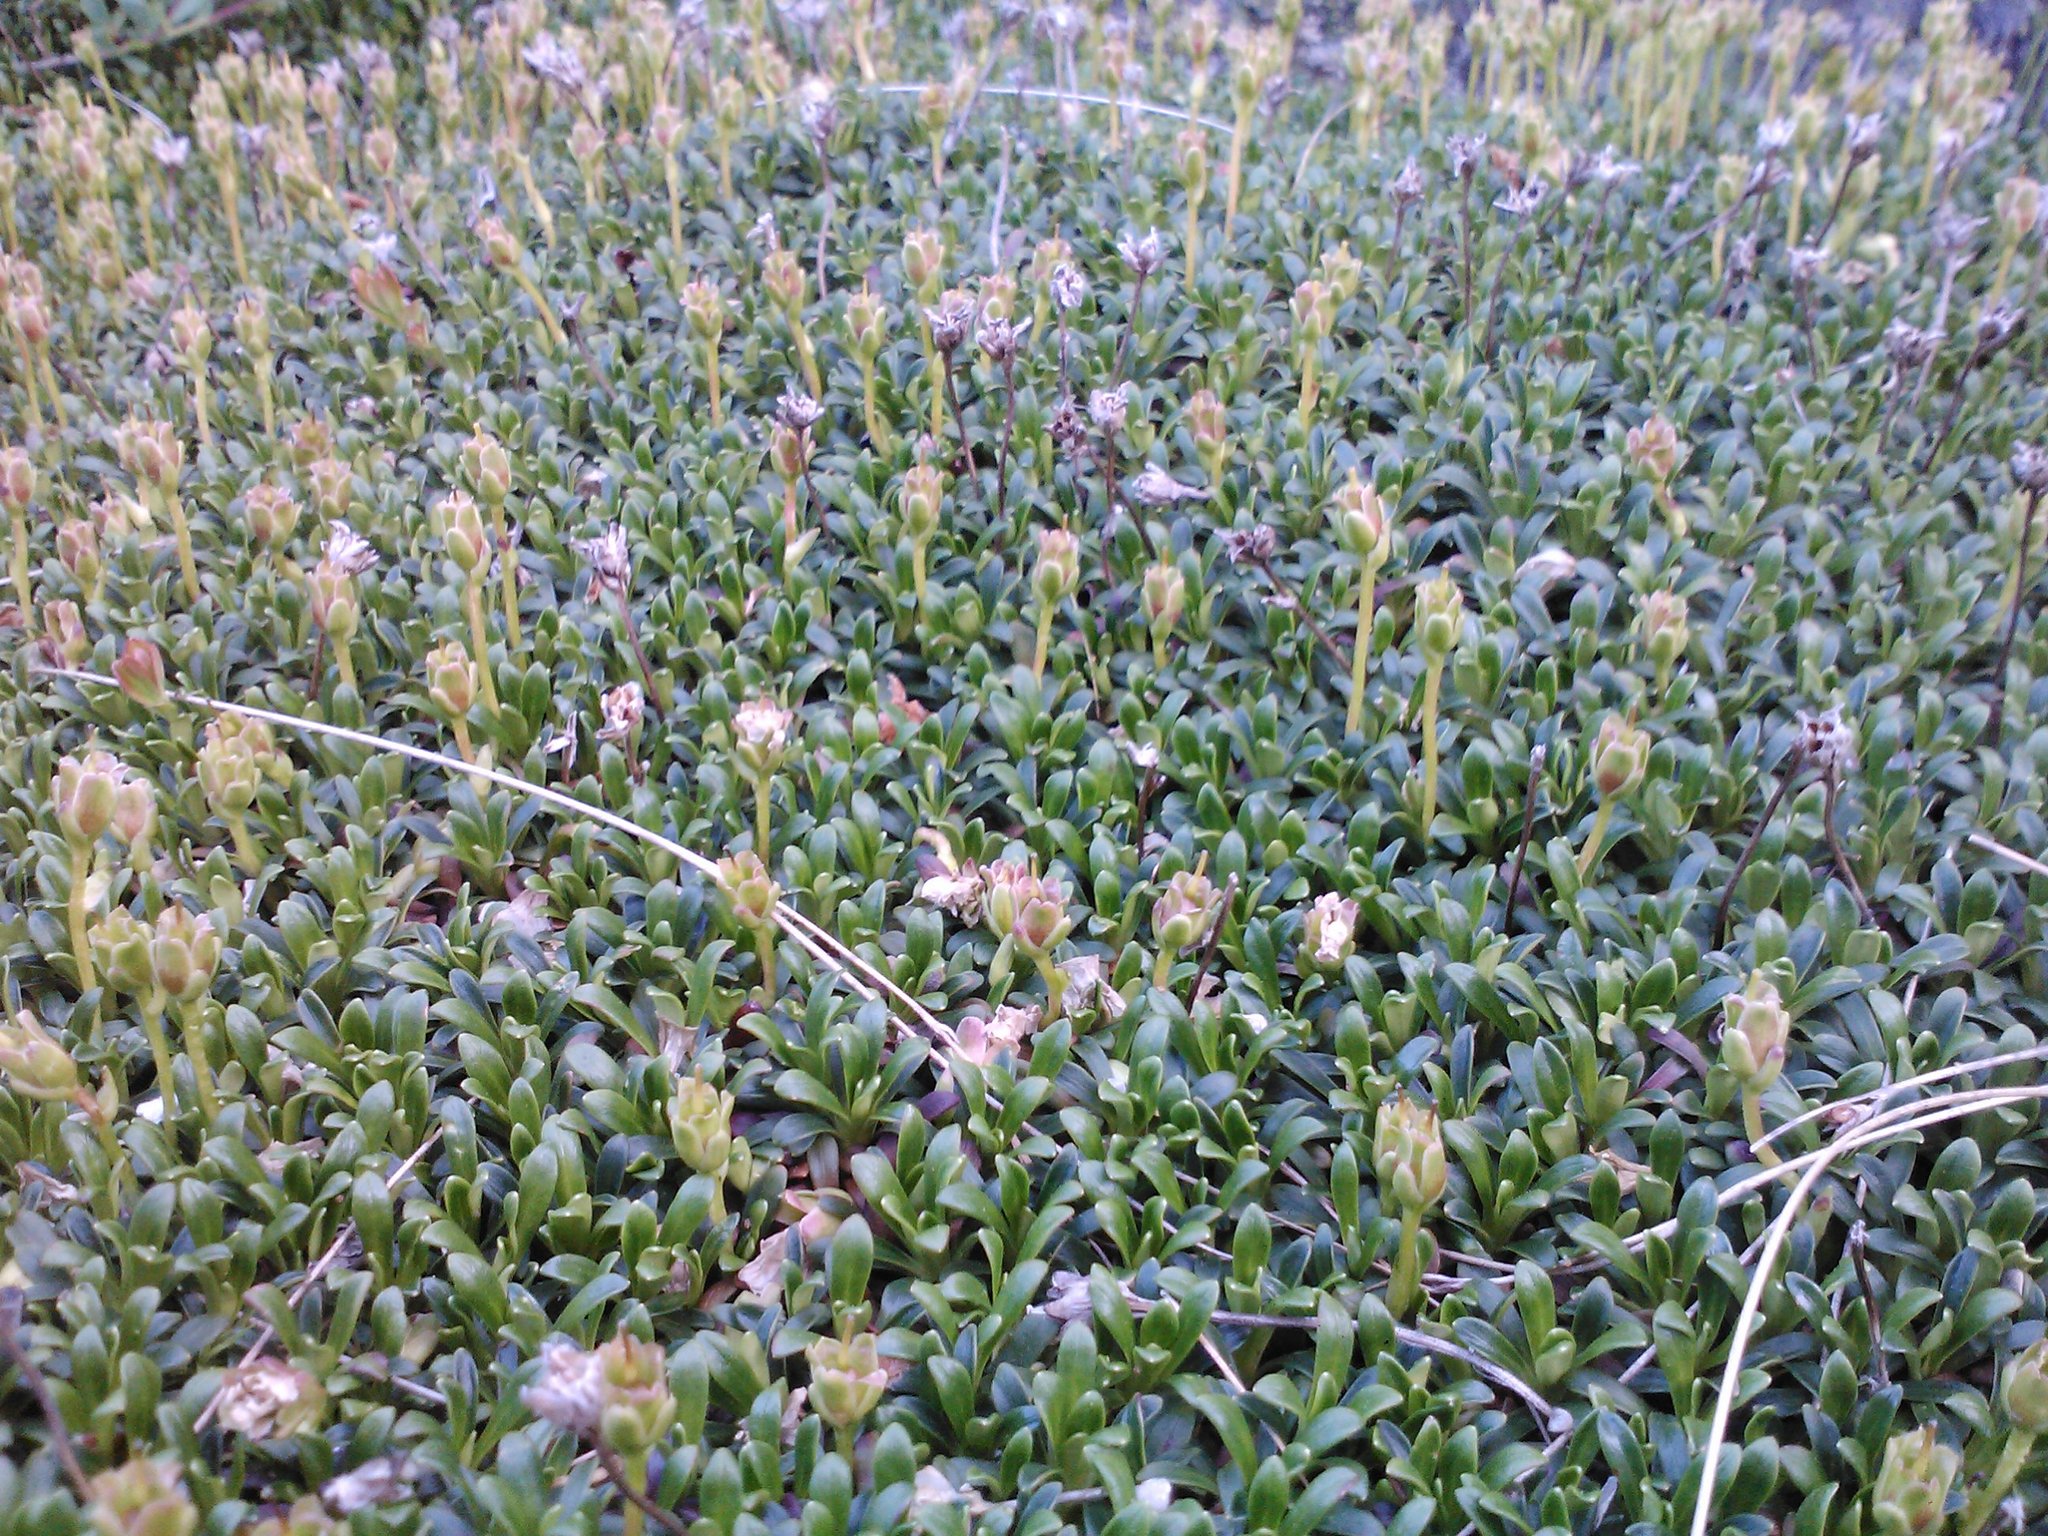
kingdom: Plantae
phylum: Tracheophyta
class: Magnoliopsida
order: Ericales
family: Diapensiaceae
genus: Diapensia
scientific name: Diapensia lapponica
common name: Diapensia
